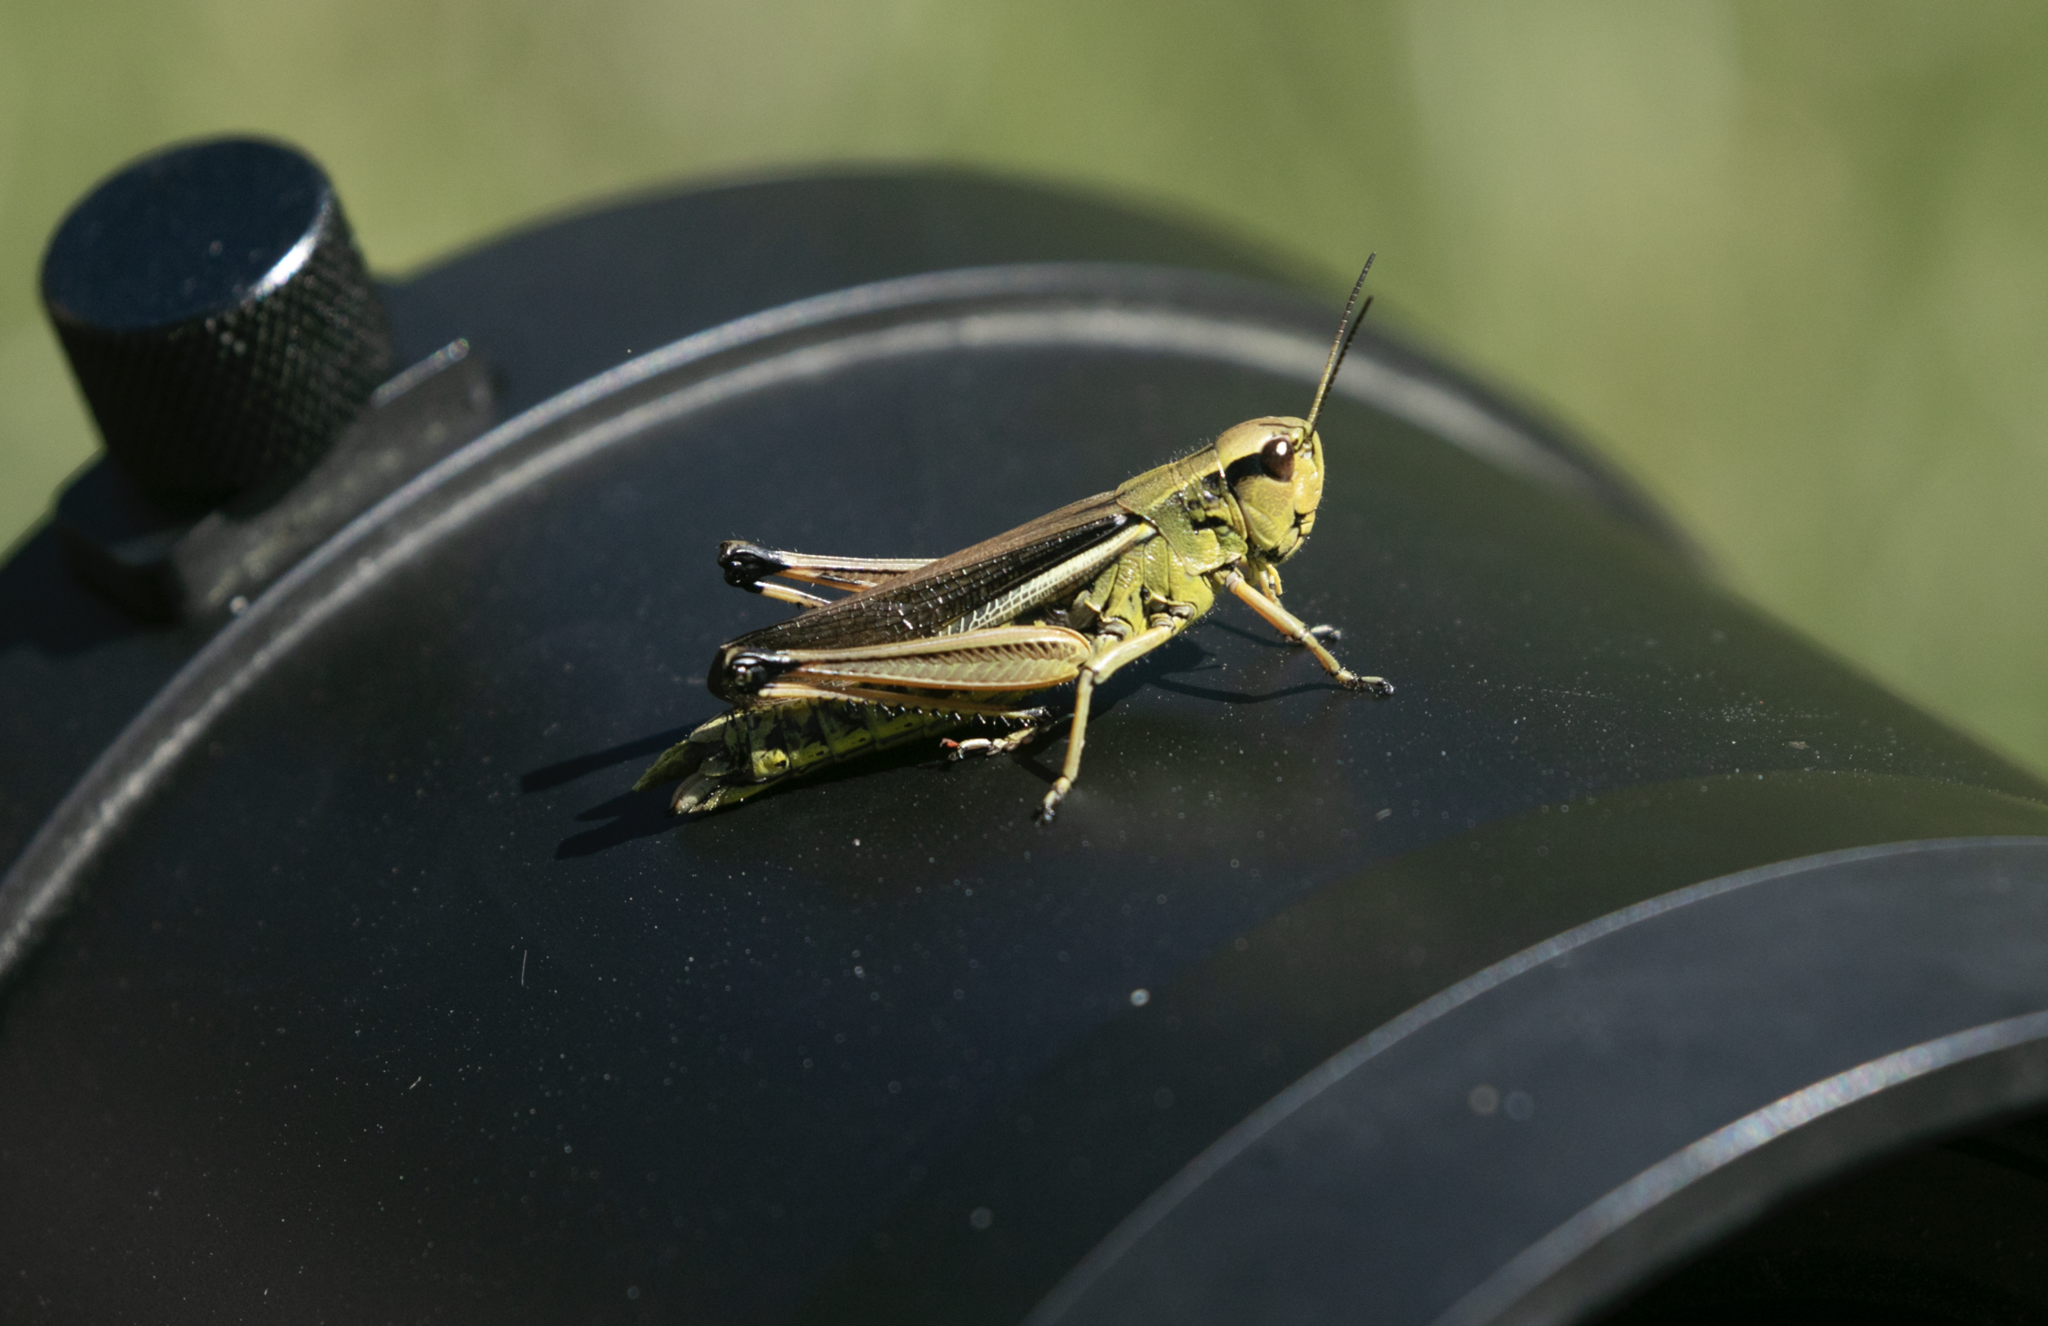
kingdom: Animalia
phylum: Arthropoda
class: Insecta
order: Orthoptera
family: Acrididae
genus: Stethophyma
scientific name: Stethophyma grossum
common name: Large marsh grasshopper
